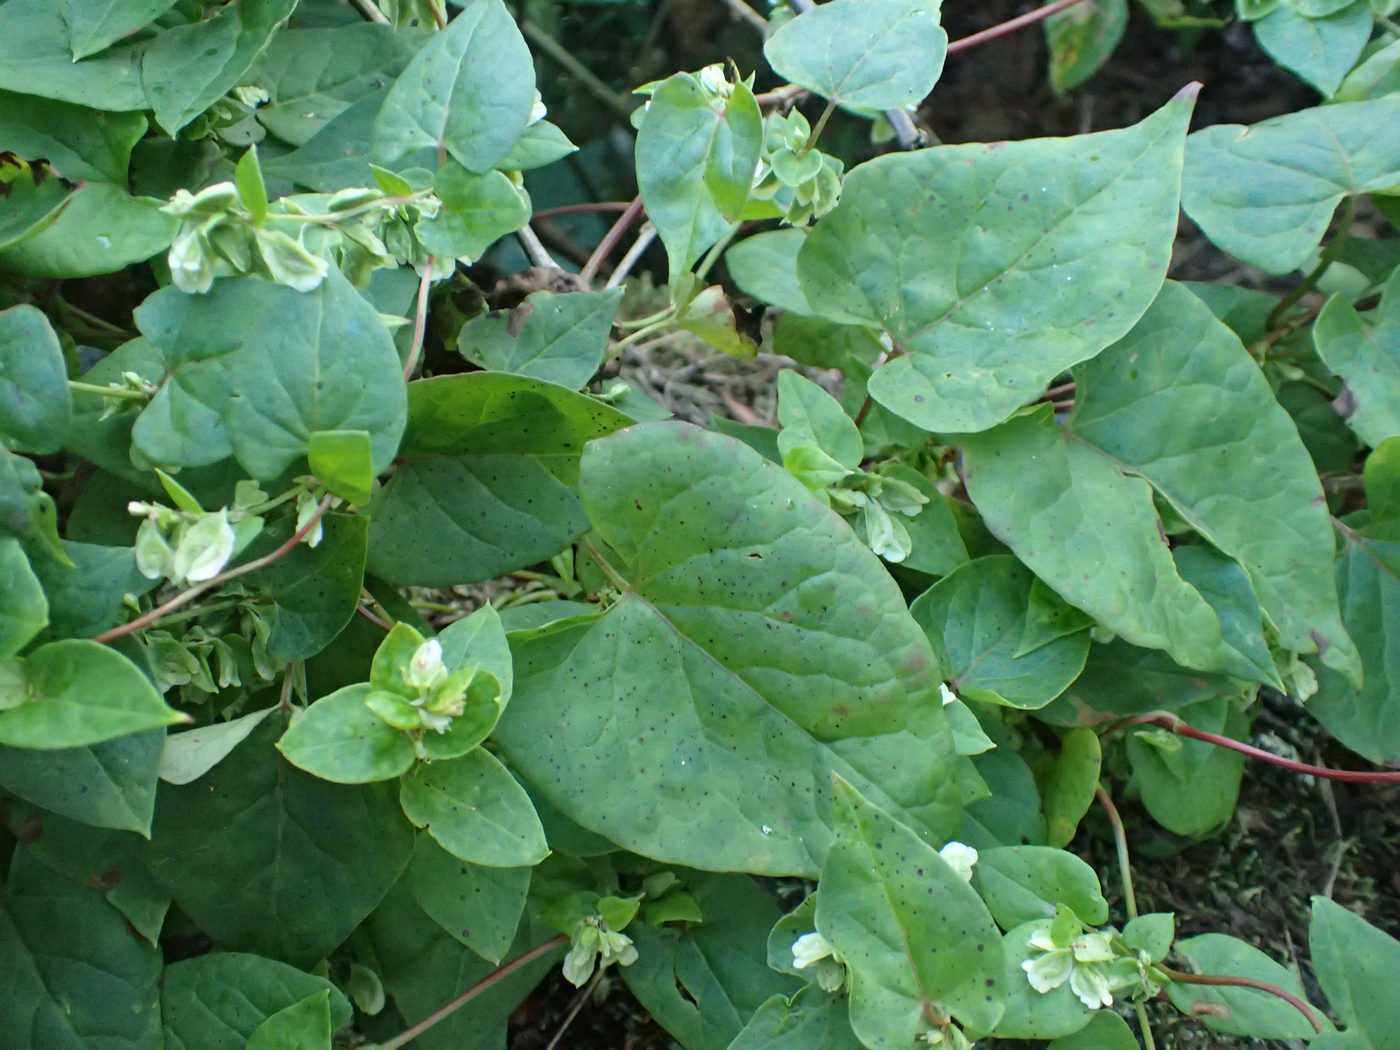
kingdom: Plantae
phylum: Tracheophyta
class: Magnoliopsida
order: Caryophyllales
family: Polygonaceae
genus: Fallopia
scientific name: Fallopia scandens
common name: Climbing false buckwheat
